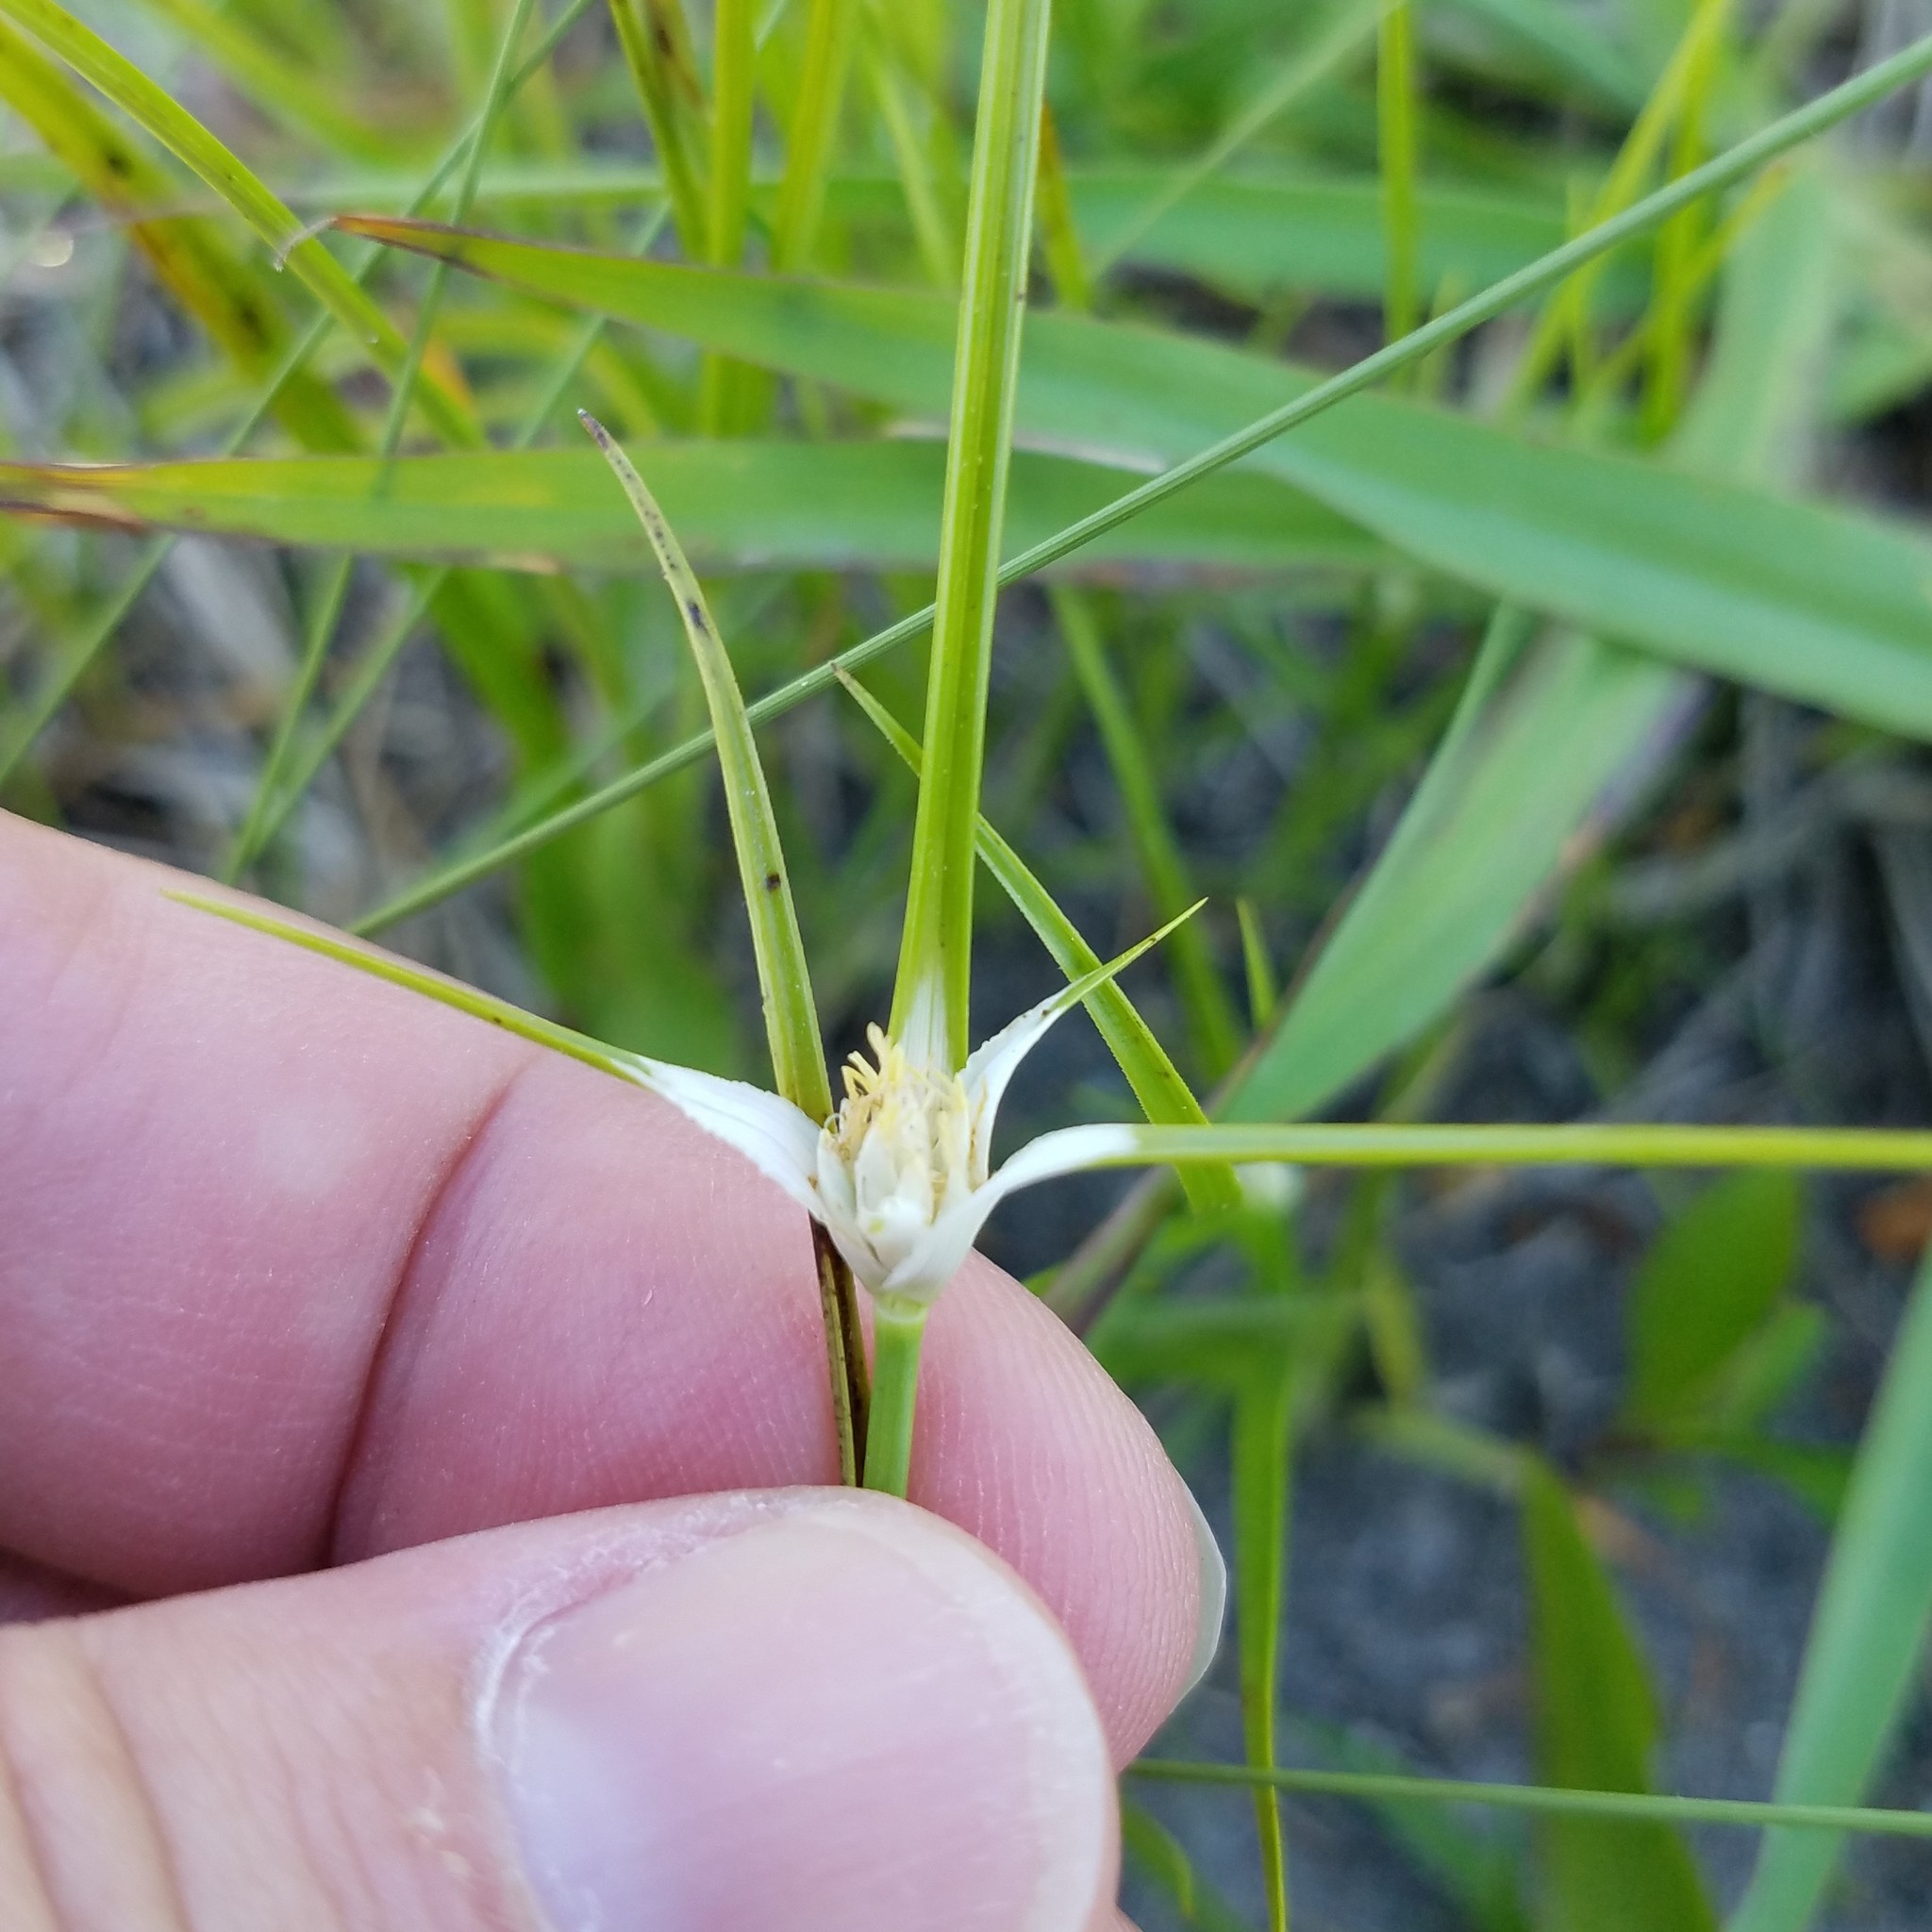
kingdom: Plantae
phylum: Tracheophyta
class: Liliopsida
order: Poales
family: Cyperaceae
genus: Rhynchospora
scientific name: Rhynchospora colorata
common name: Star sedge
